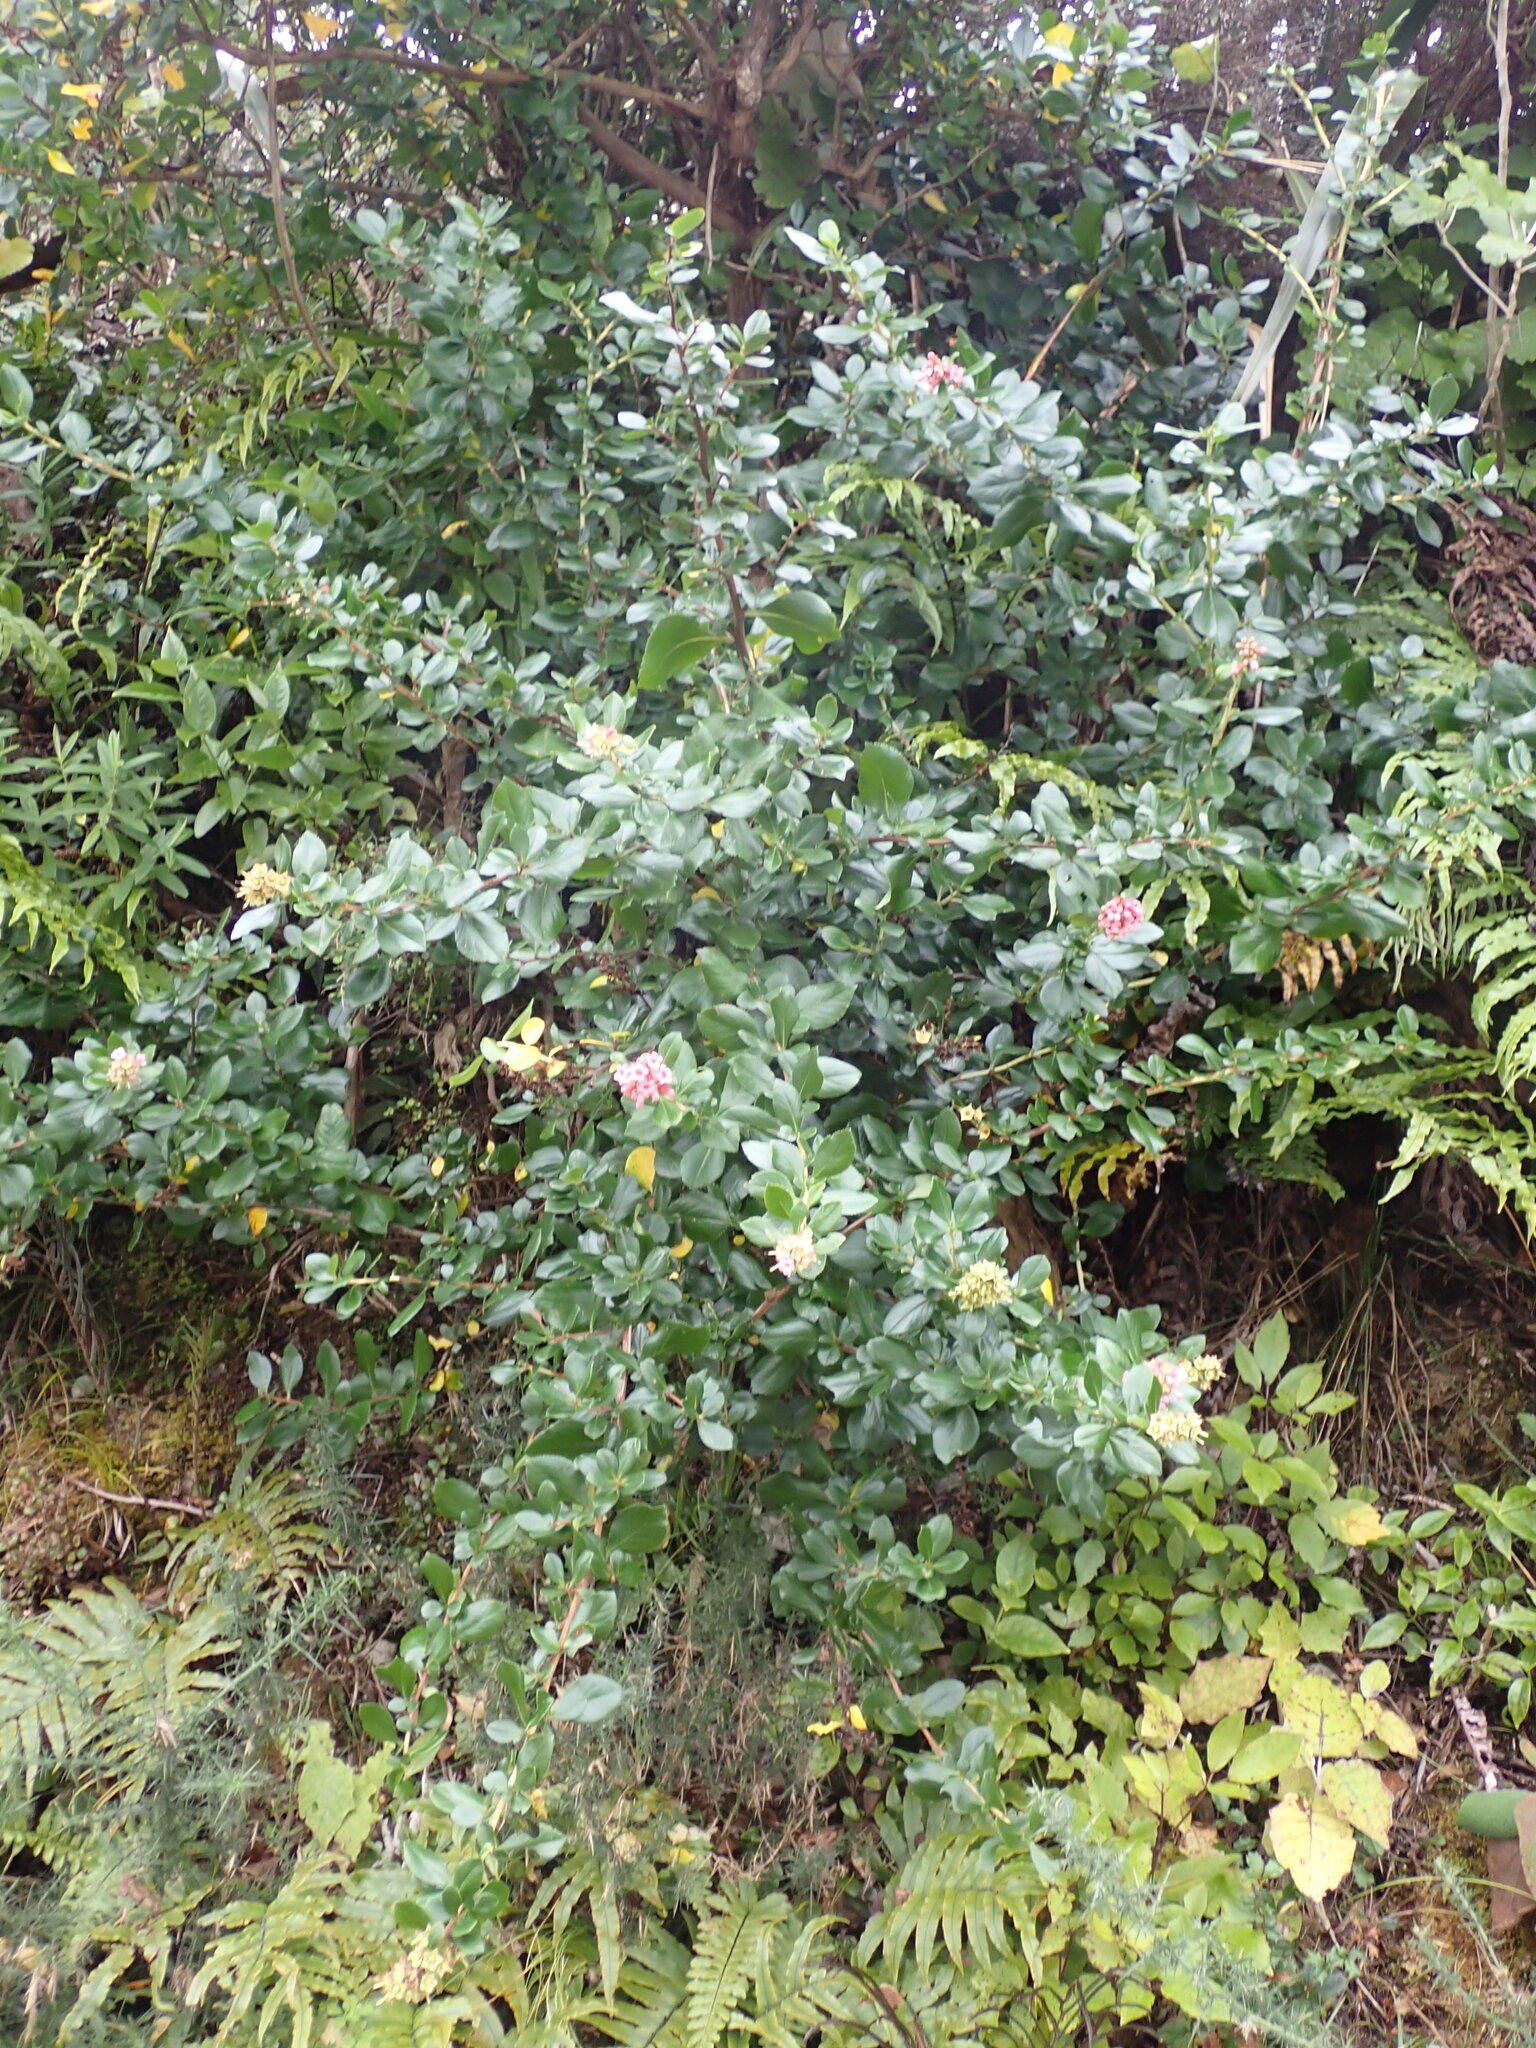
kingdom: Plantae
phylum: Tracheophyta
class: Magnoliopsida
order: Escalloniales
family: Escalloniaceae
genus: Escallonia
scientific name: Escallonia rubra
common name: Redclaws
